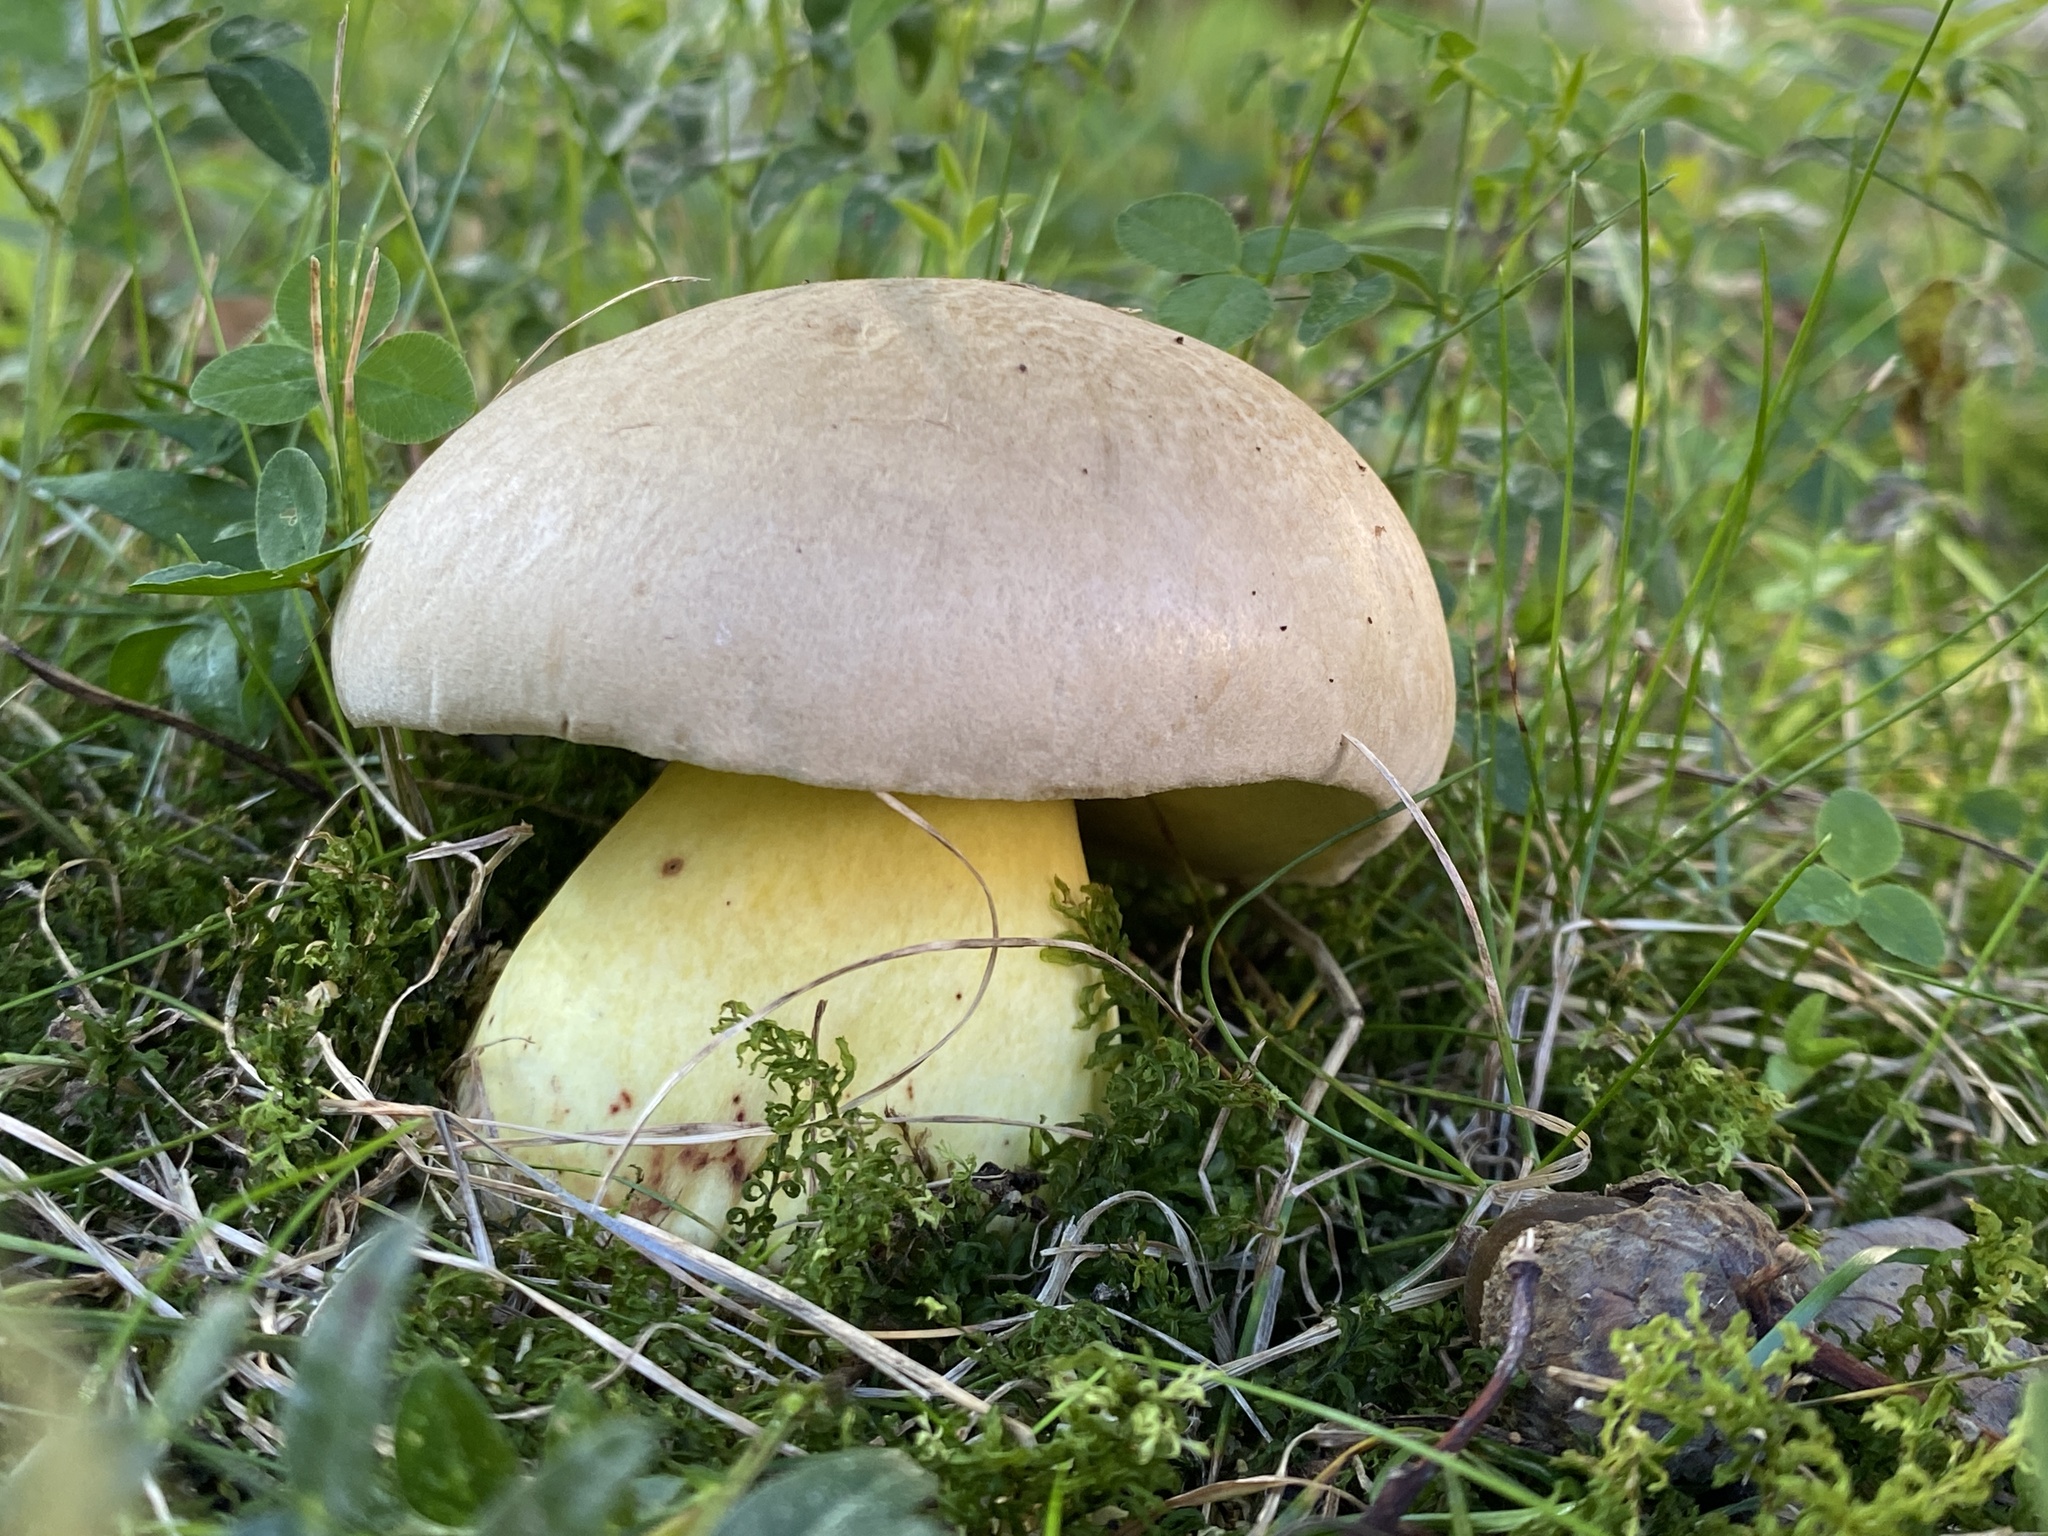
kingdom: Fungi
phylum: Basidiomycota
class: Agaricomycetes
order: Boletales
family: Boletaceae
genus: Caloboletus
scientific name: Caloboletus radicans
